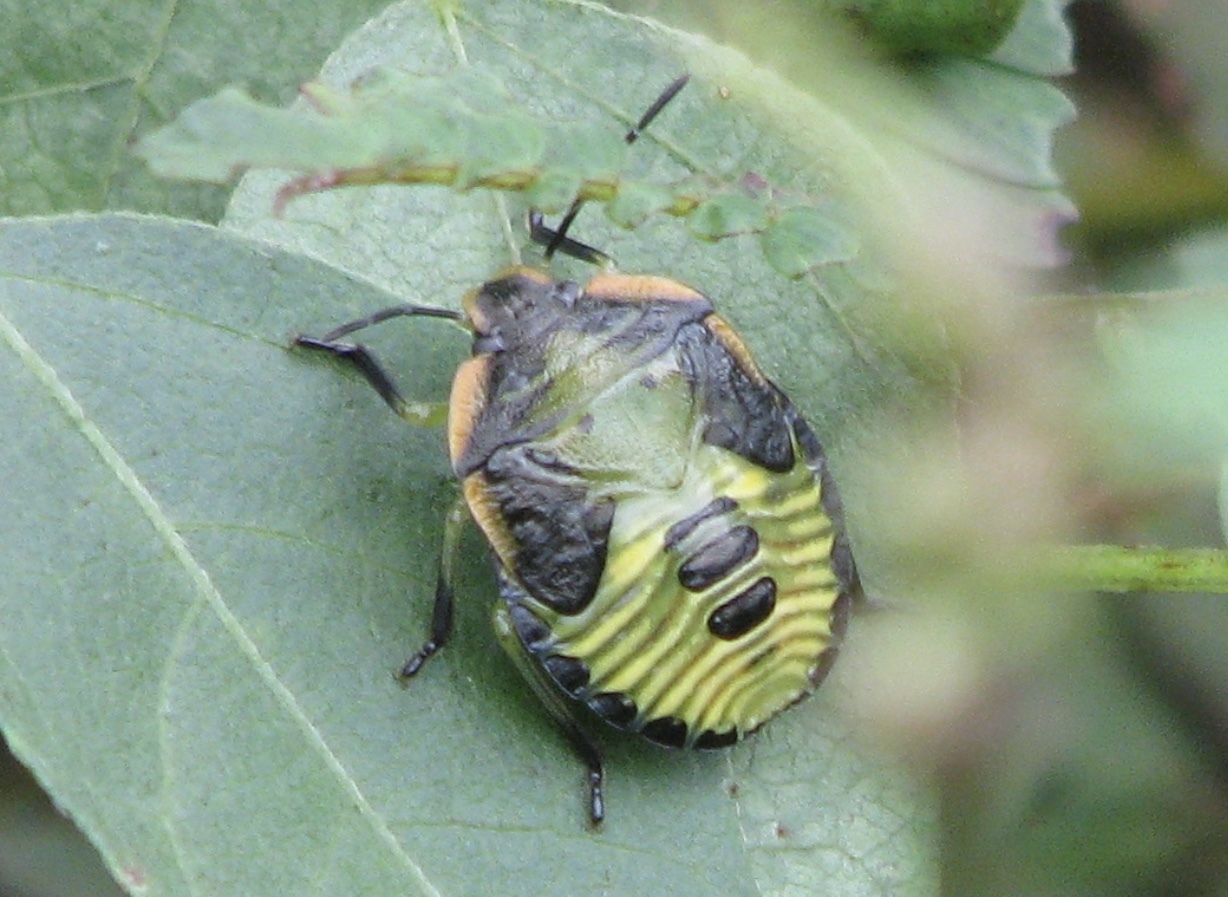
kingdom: Animalia
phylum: Arthropoda
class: Insecta
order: Hemiptera
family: Pentatomidae
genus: Chinavia
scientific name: Chinavia hilaris
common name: Green stink bug
